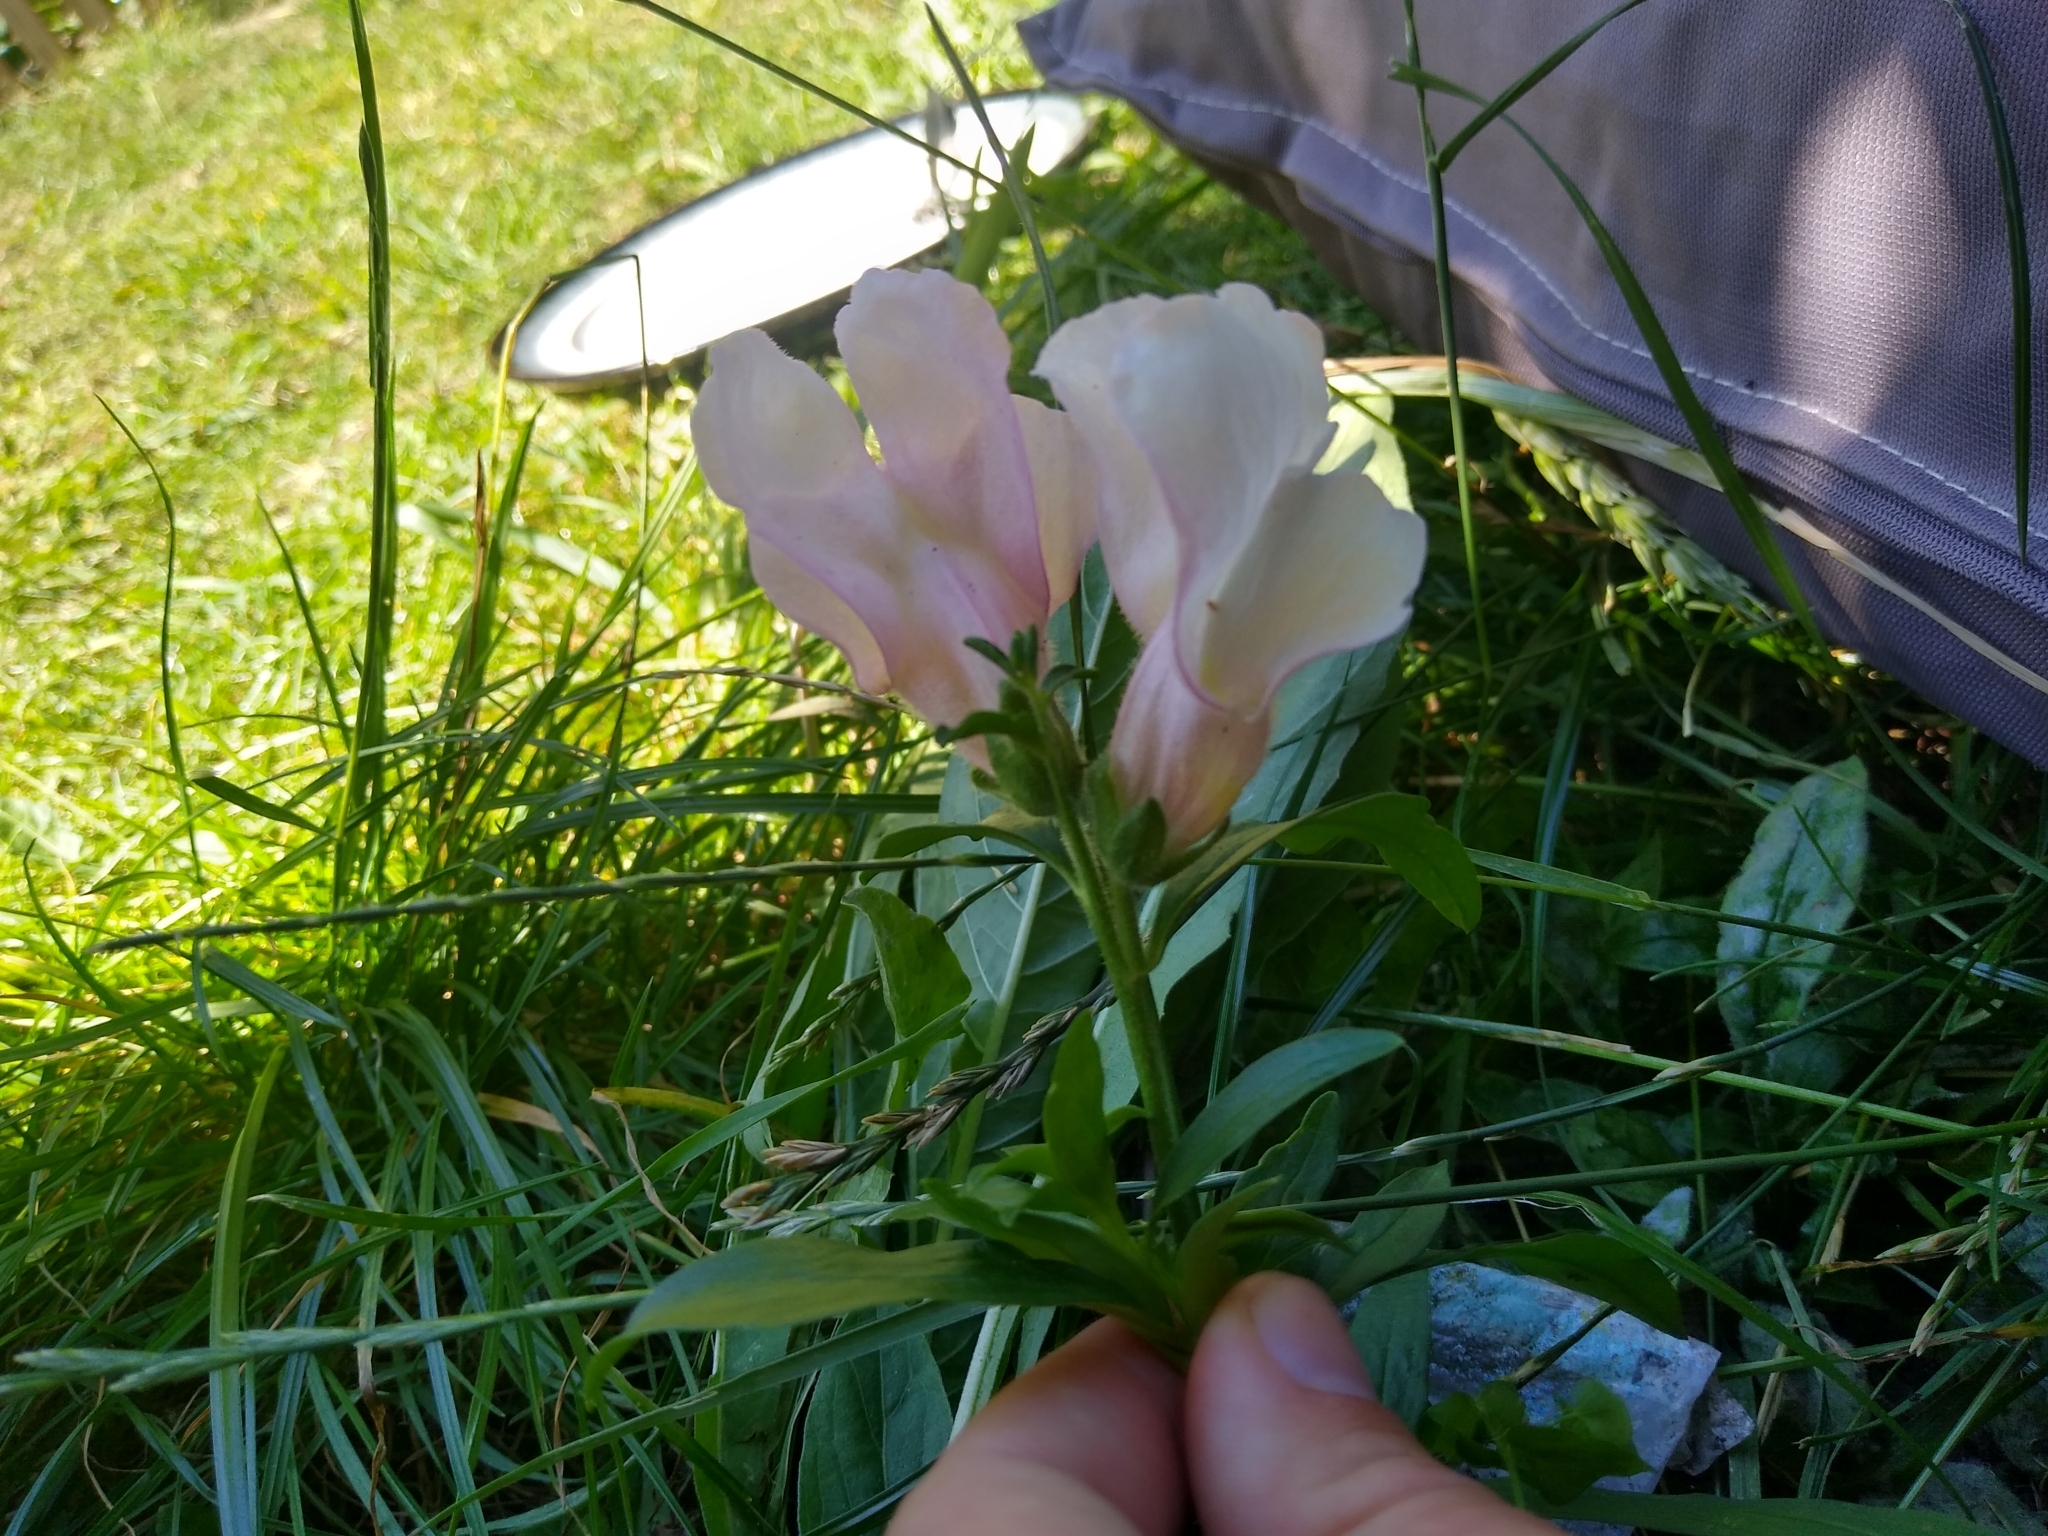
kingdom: Plantae
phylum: Tracheophyta
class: Magnoliopsida
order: Lamiales
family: Plantaginaceae
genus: Antirrhinum
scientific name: Antirrhinum majus
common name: Snapdragon
